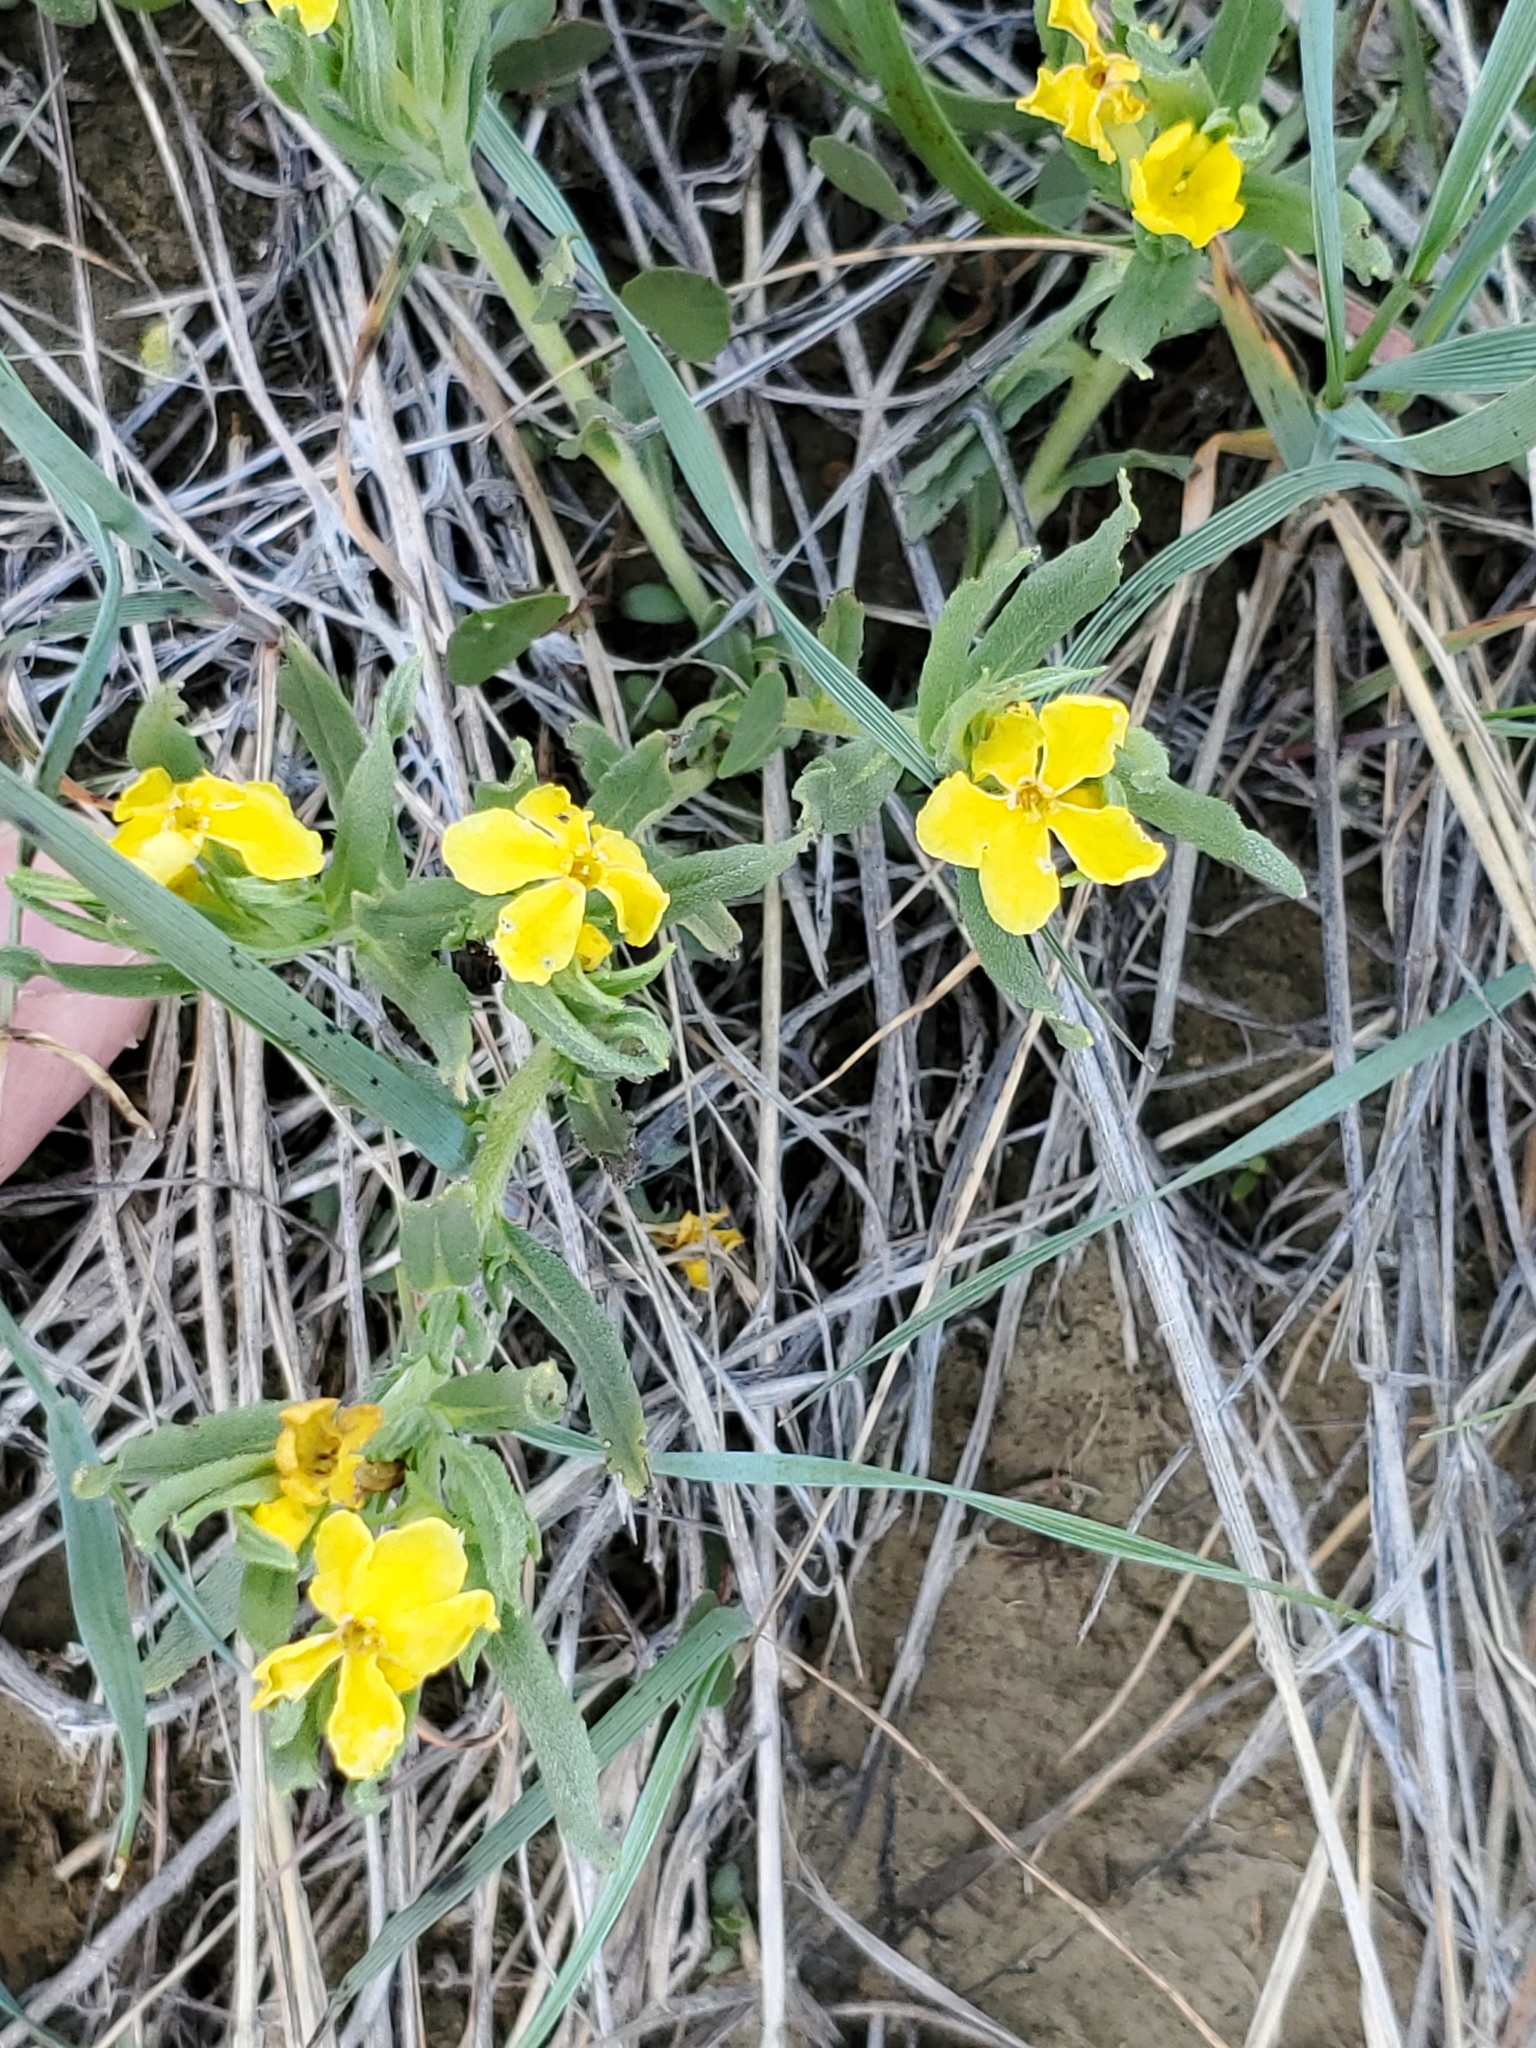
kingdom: Plantae
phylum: Tracheophyta
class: Magnoliopsida
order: Boraginales
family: Boraginaceae
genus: Lithospermum
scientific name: Lithospermum incisum
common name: Fringed gromwell
